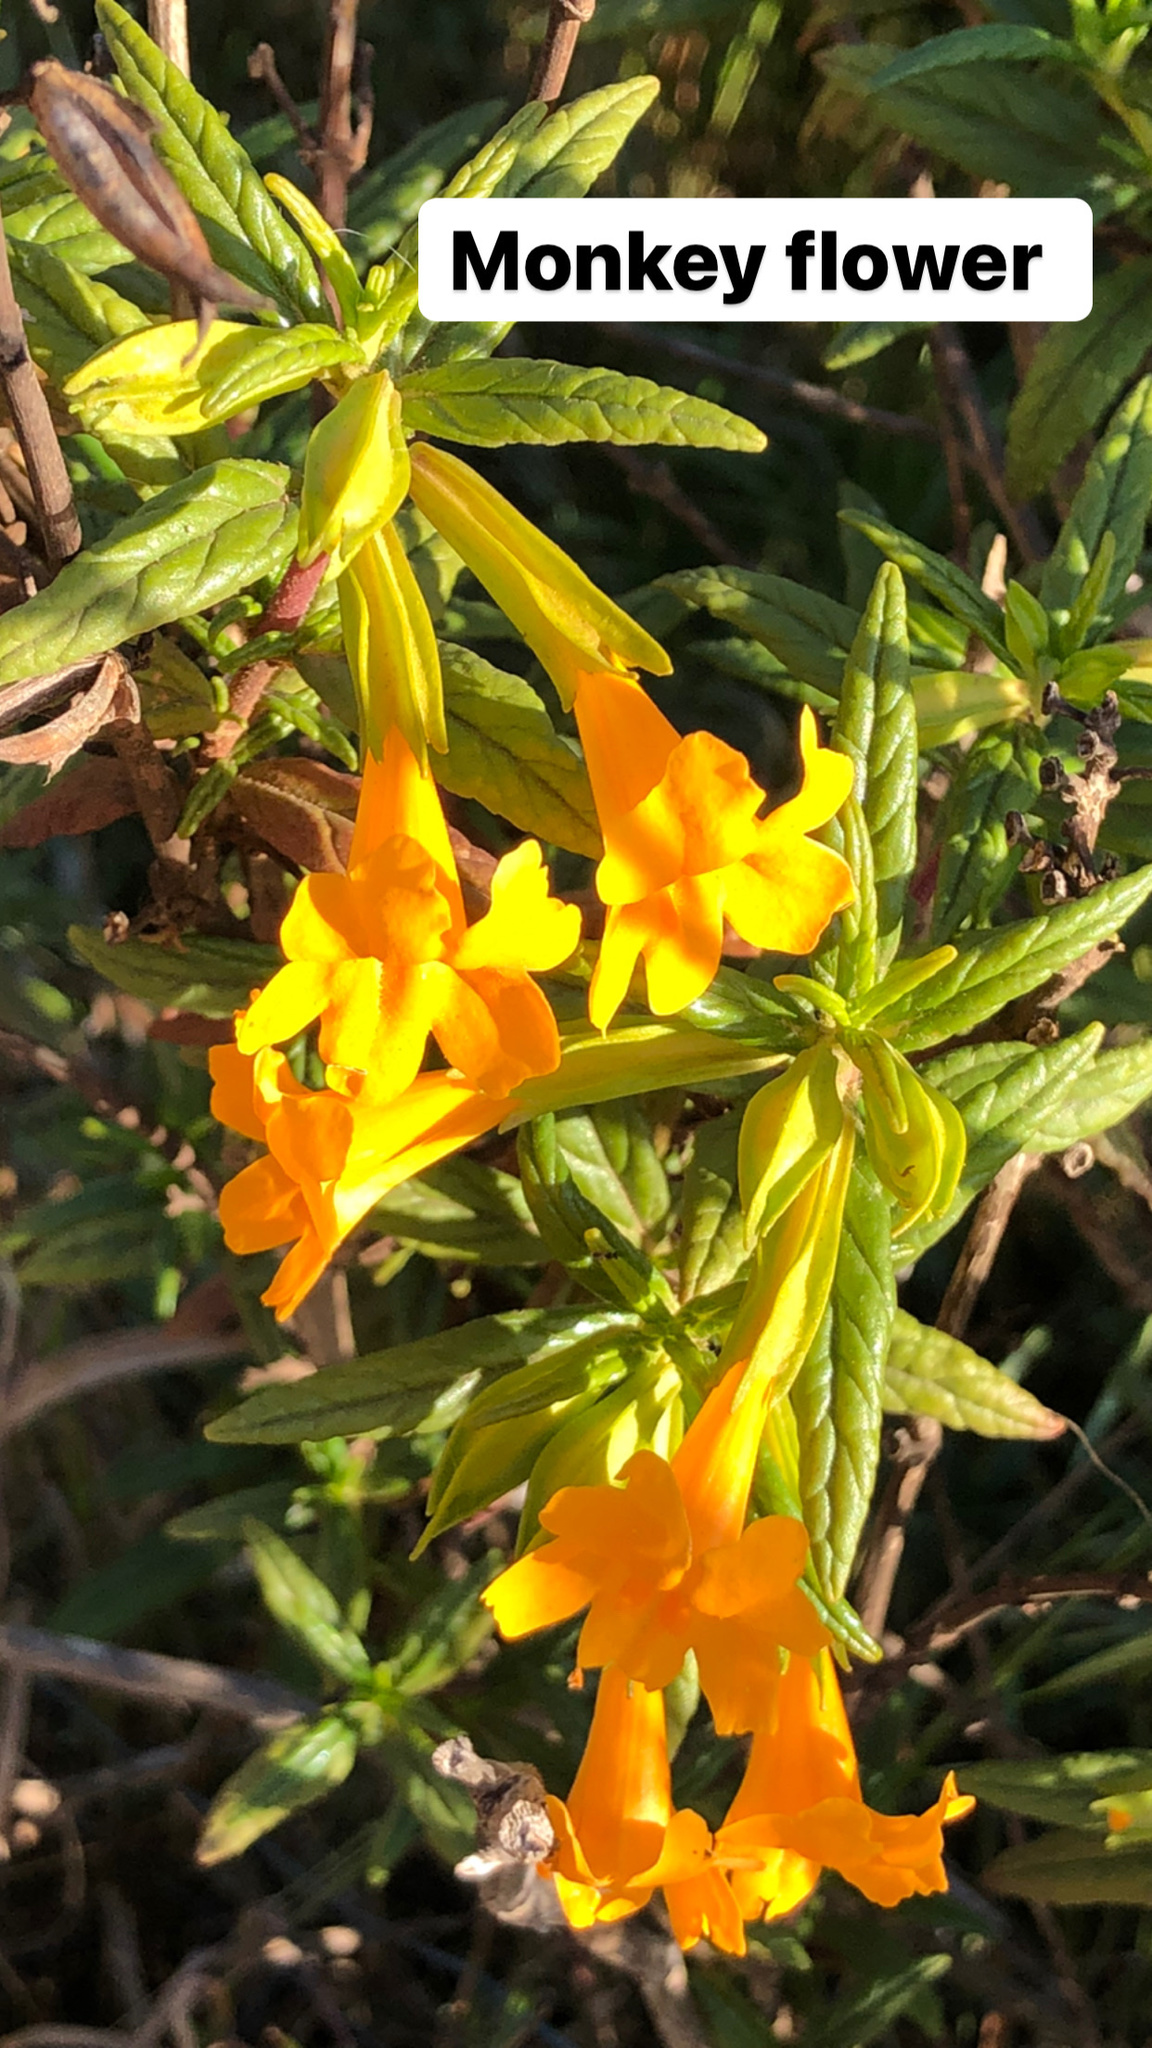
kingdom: Plantae
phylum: Tracheophyta
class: Magnoliopsida
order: Lamiales
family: Phrymaceae
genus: Diplacus
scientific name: Diplacus aurantiacus
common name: Bush monkey-flower
